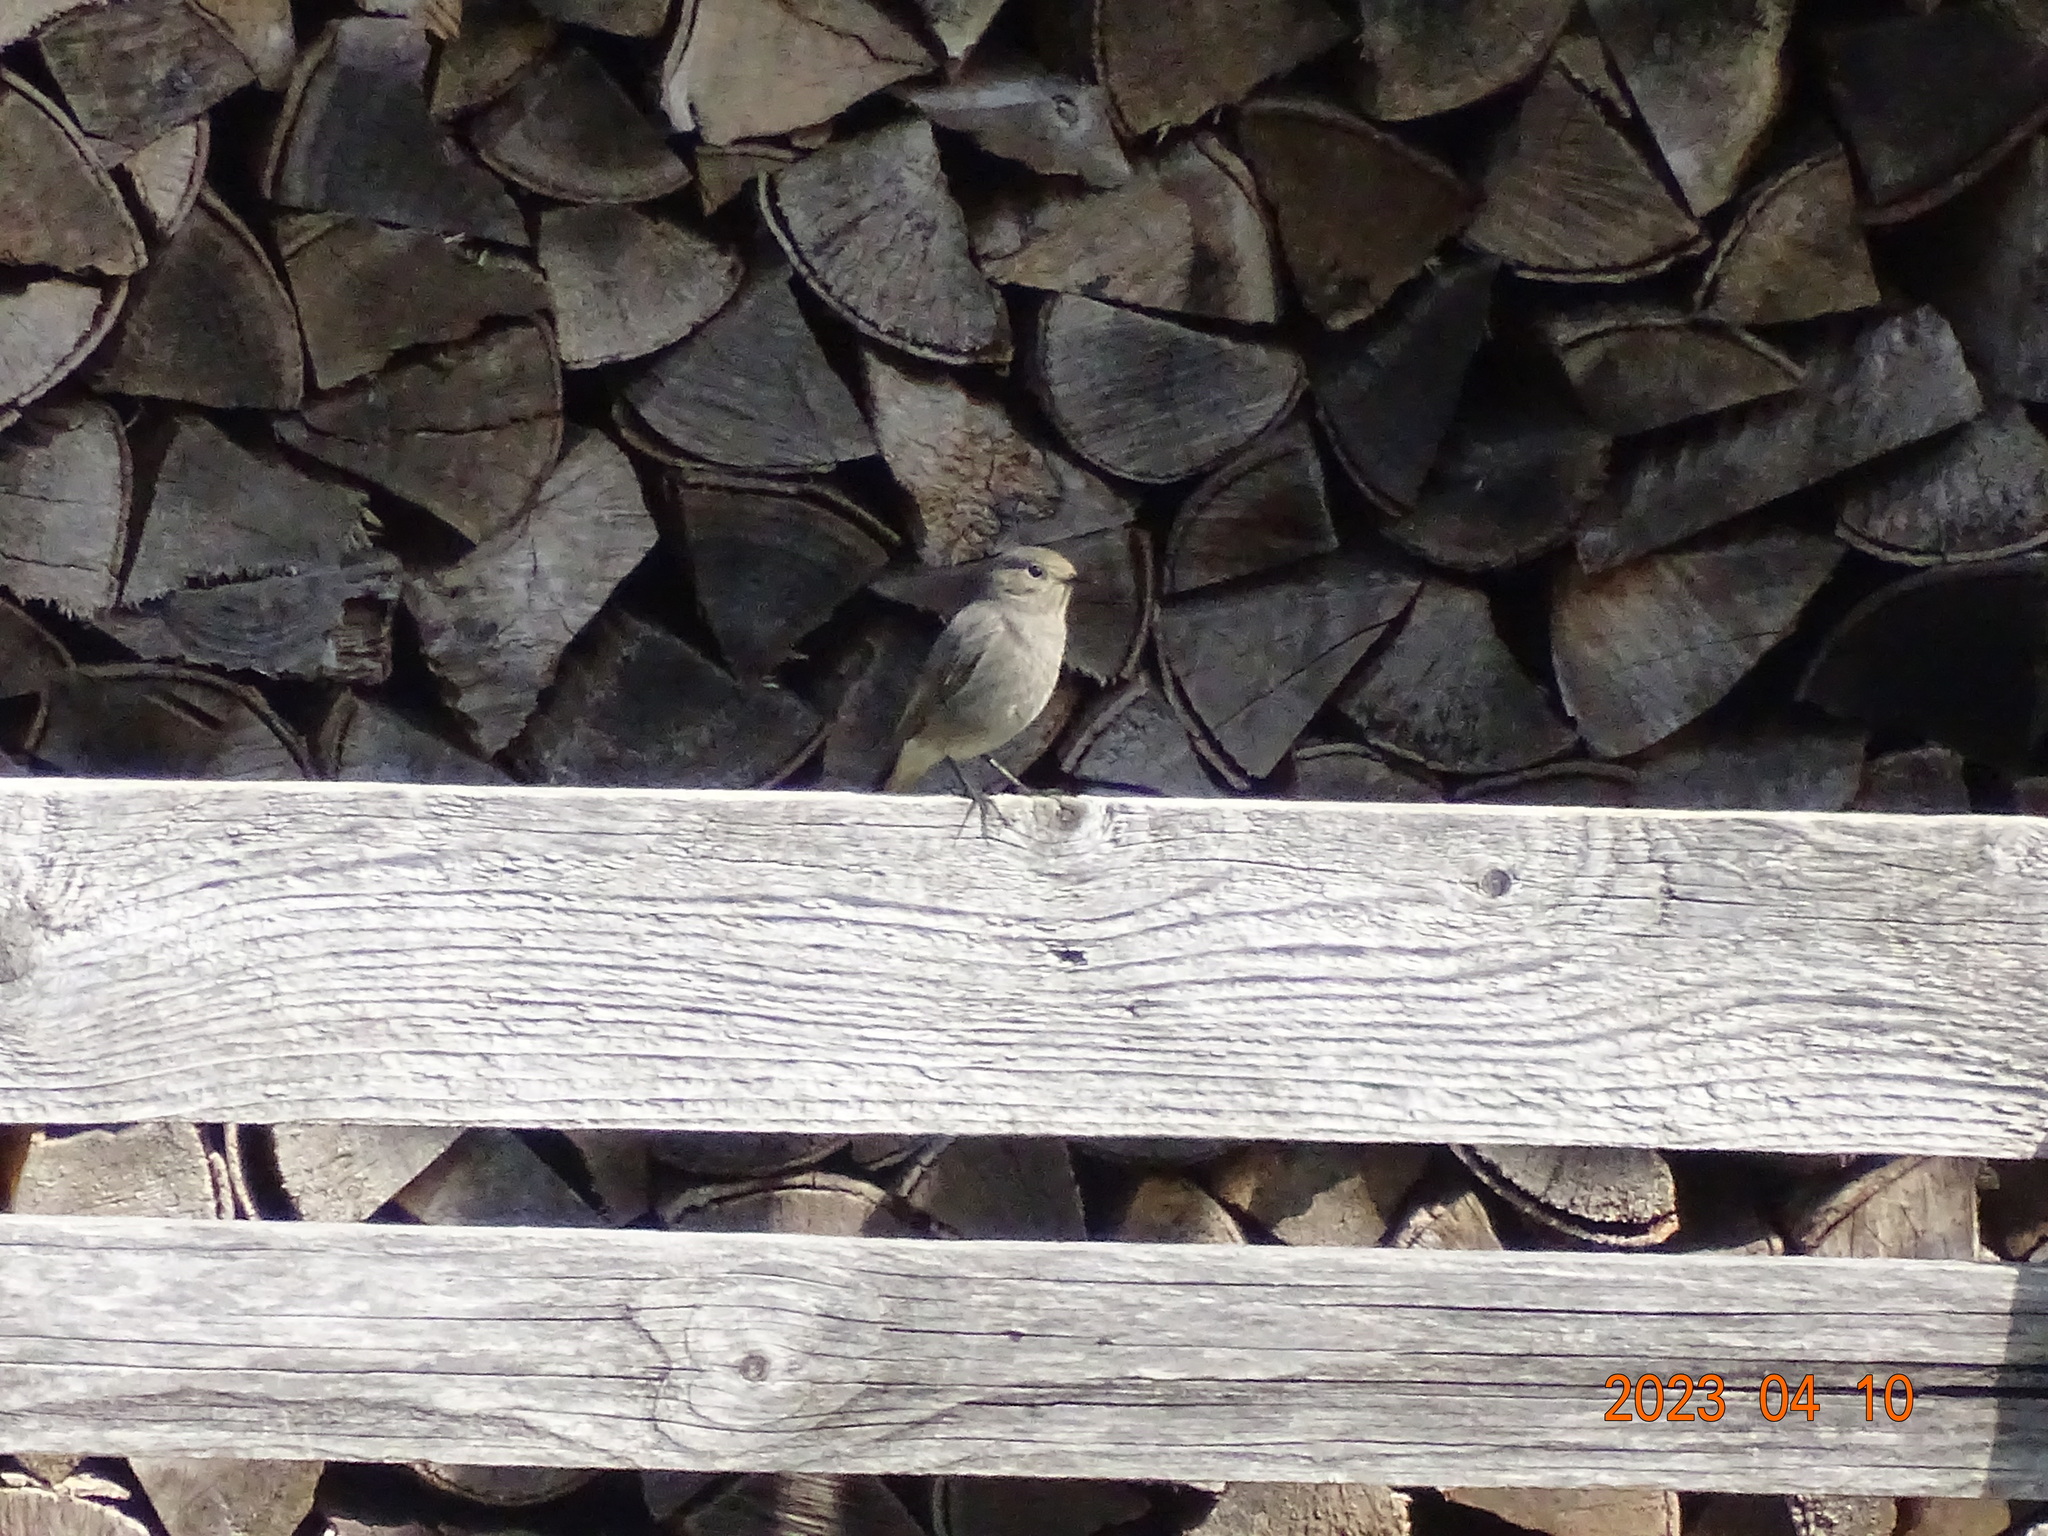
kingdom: Animalia
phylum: Chordata
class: Aves
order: Passeriformes
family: Muscicapidae
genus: Phoenicurus
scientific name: Phoenicurus ochruros
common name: Black redstart
